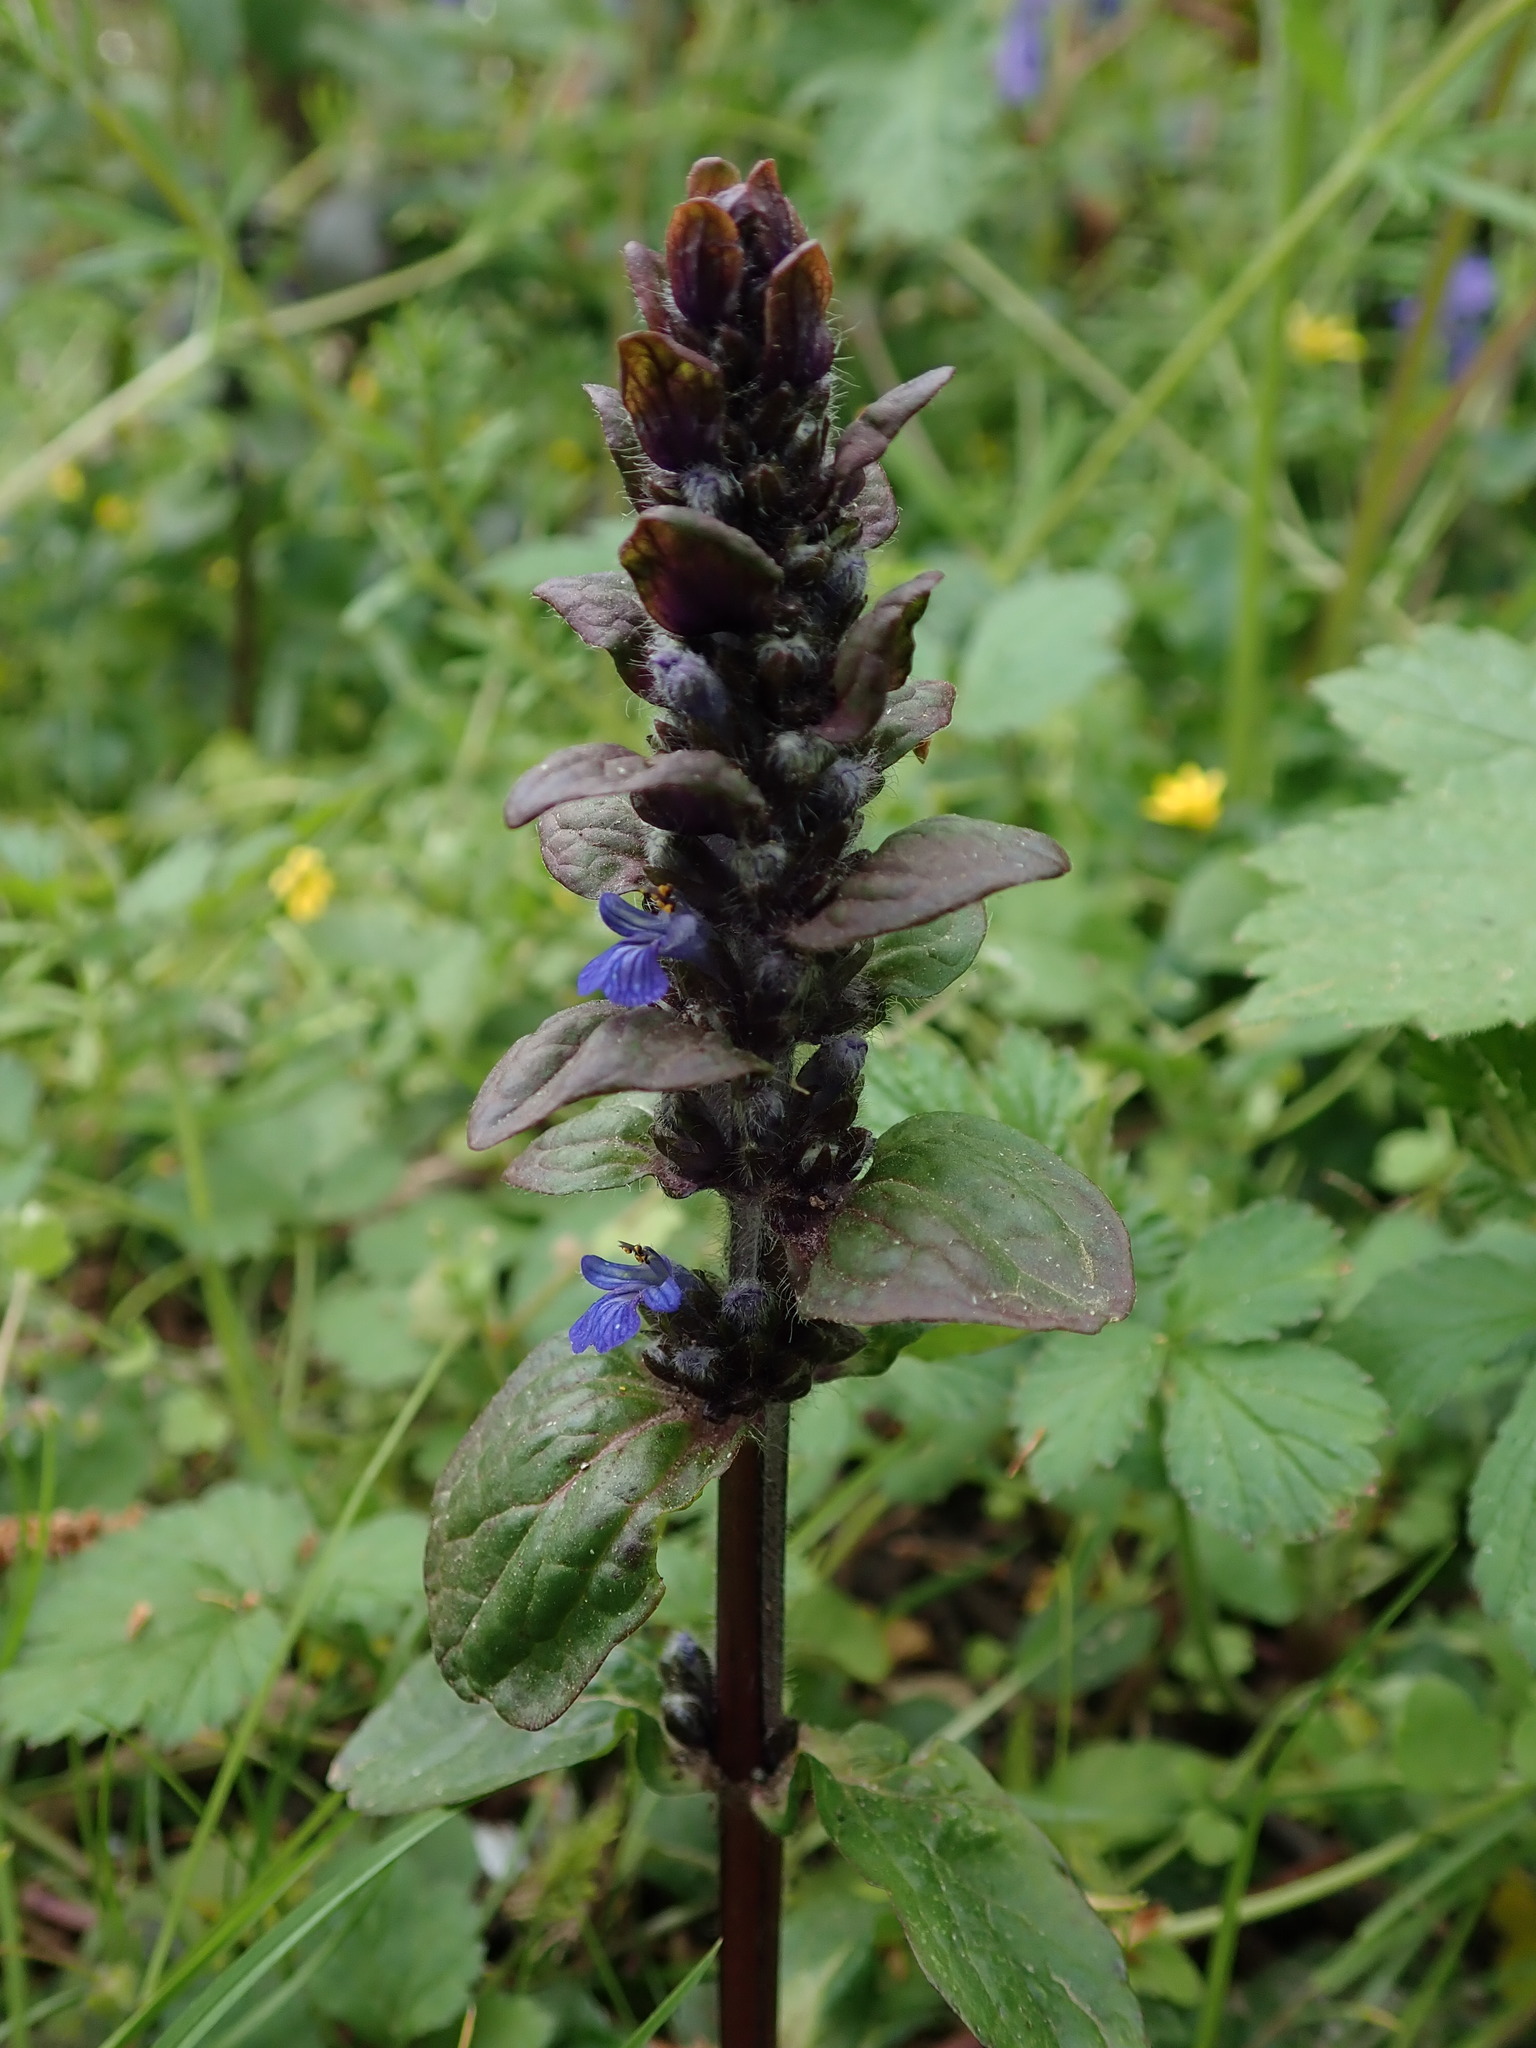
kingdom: Plantae
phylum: Tracheophyta
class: Magnoliopsida
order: Lamiales
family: Lamiaceae
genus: Ajuga
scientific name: Ajuga reptans
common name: Bugle
